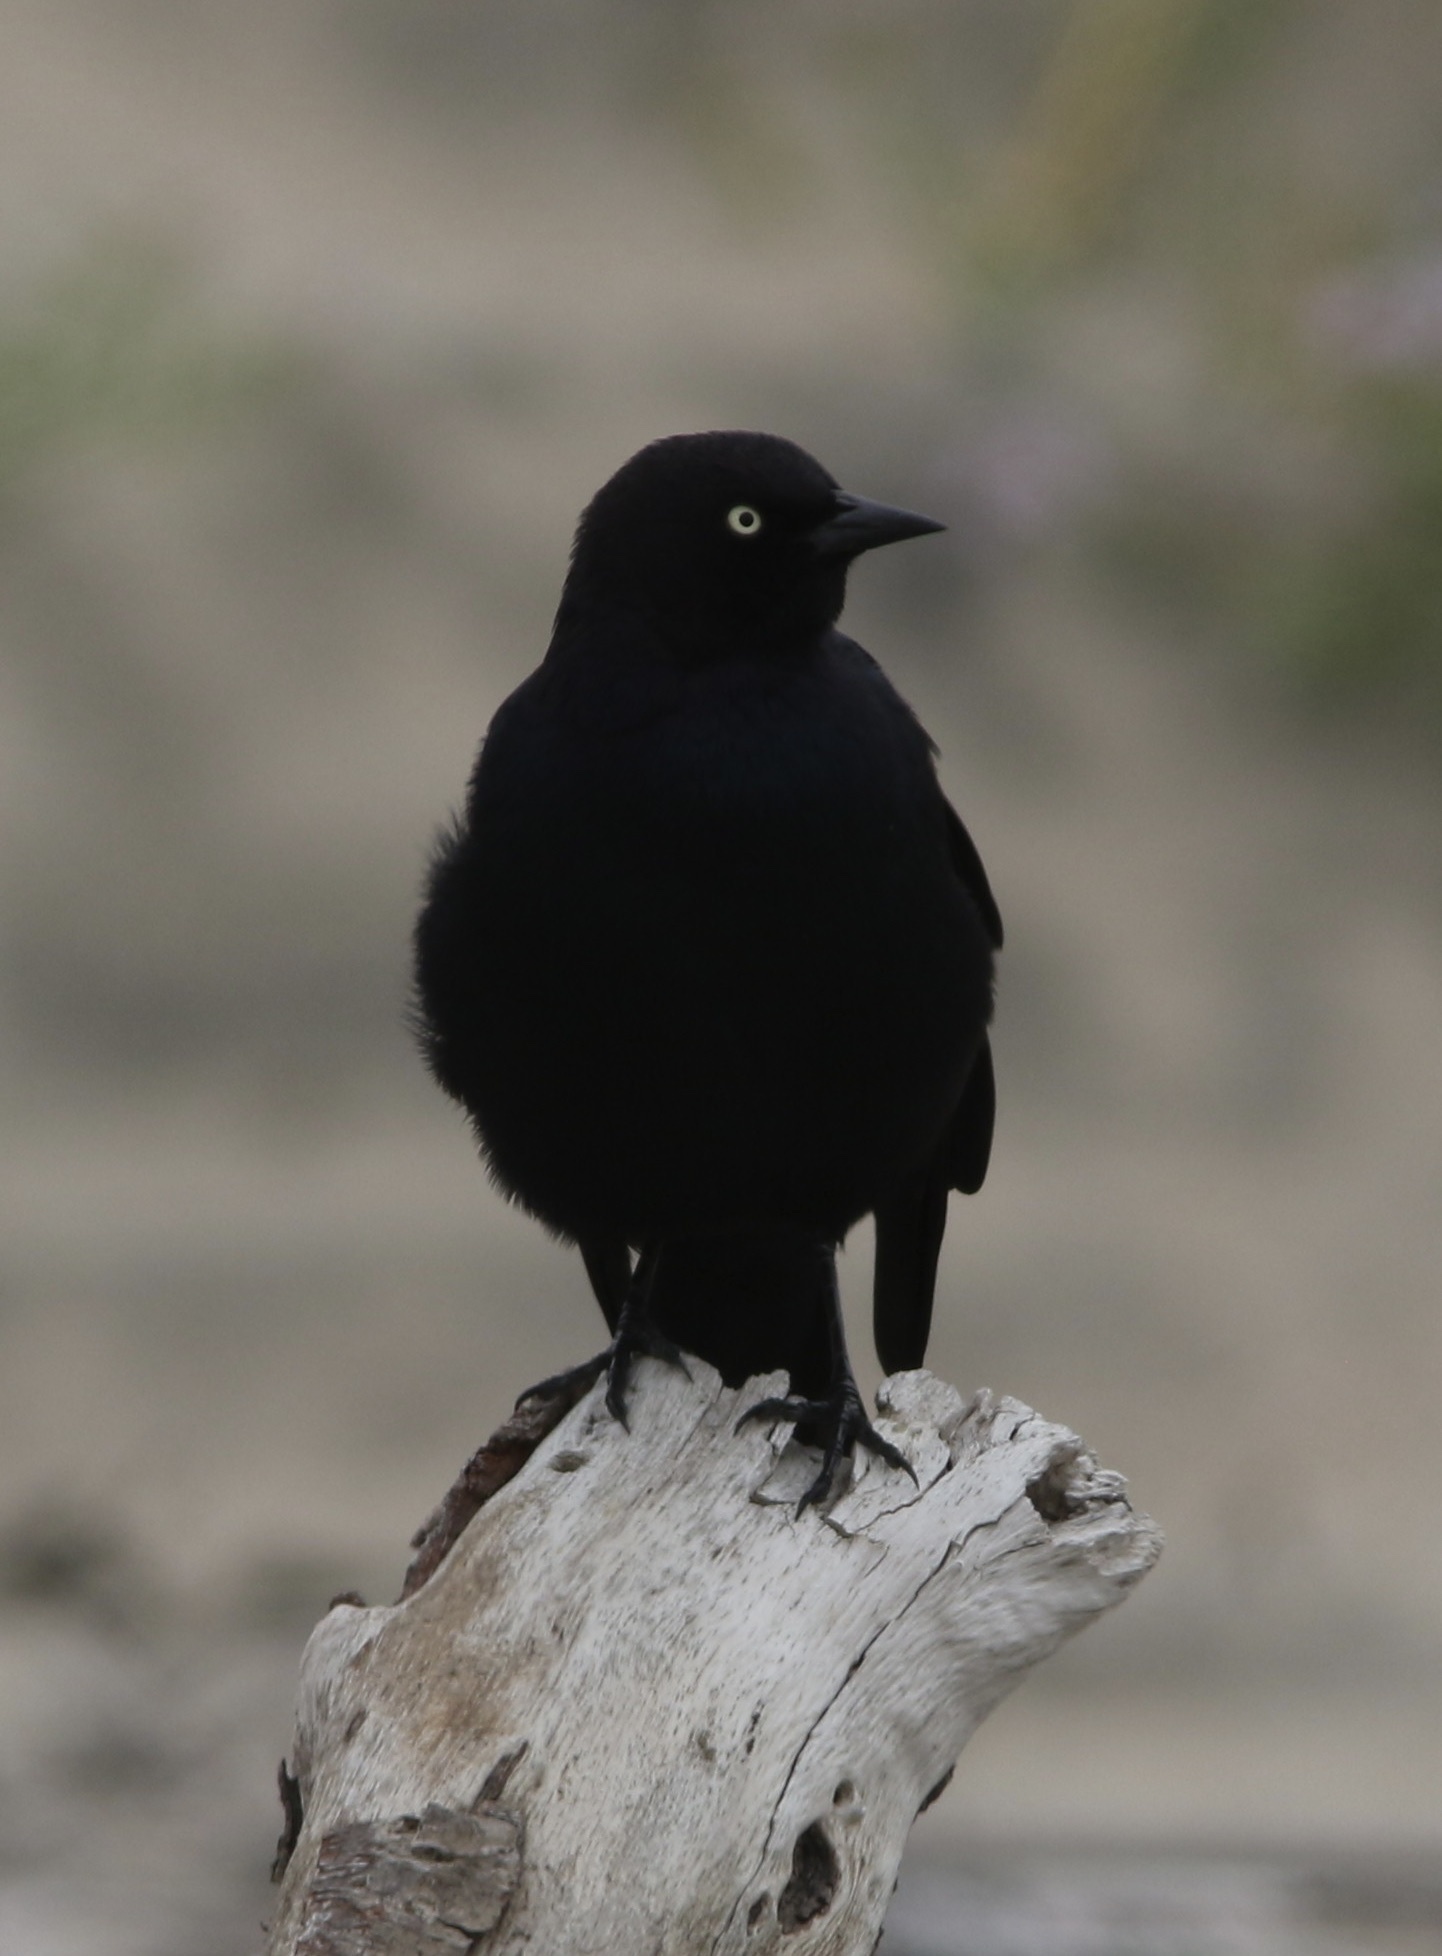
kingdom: Animalia
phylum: Chordata
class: Aves
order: Passeriformes
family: Icteridae
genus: Euphagus
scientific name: Euphagus cyanocephalus
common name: Brewer's blackbird
